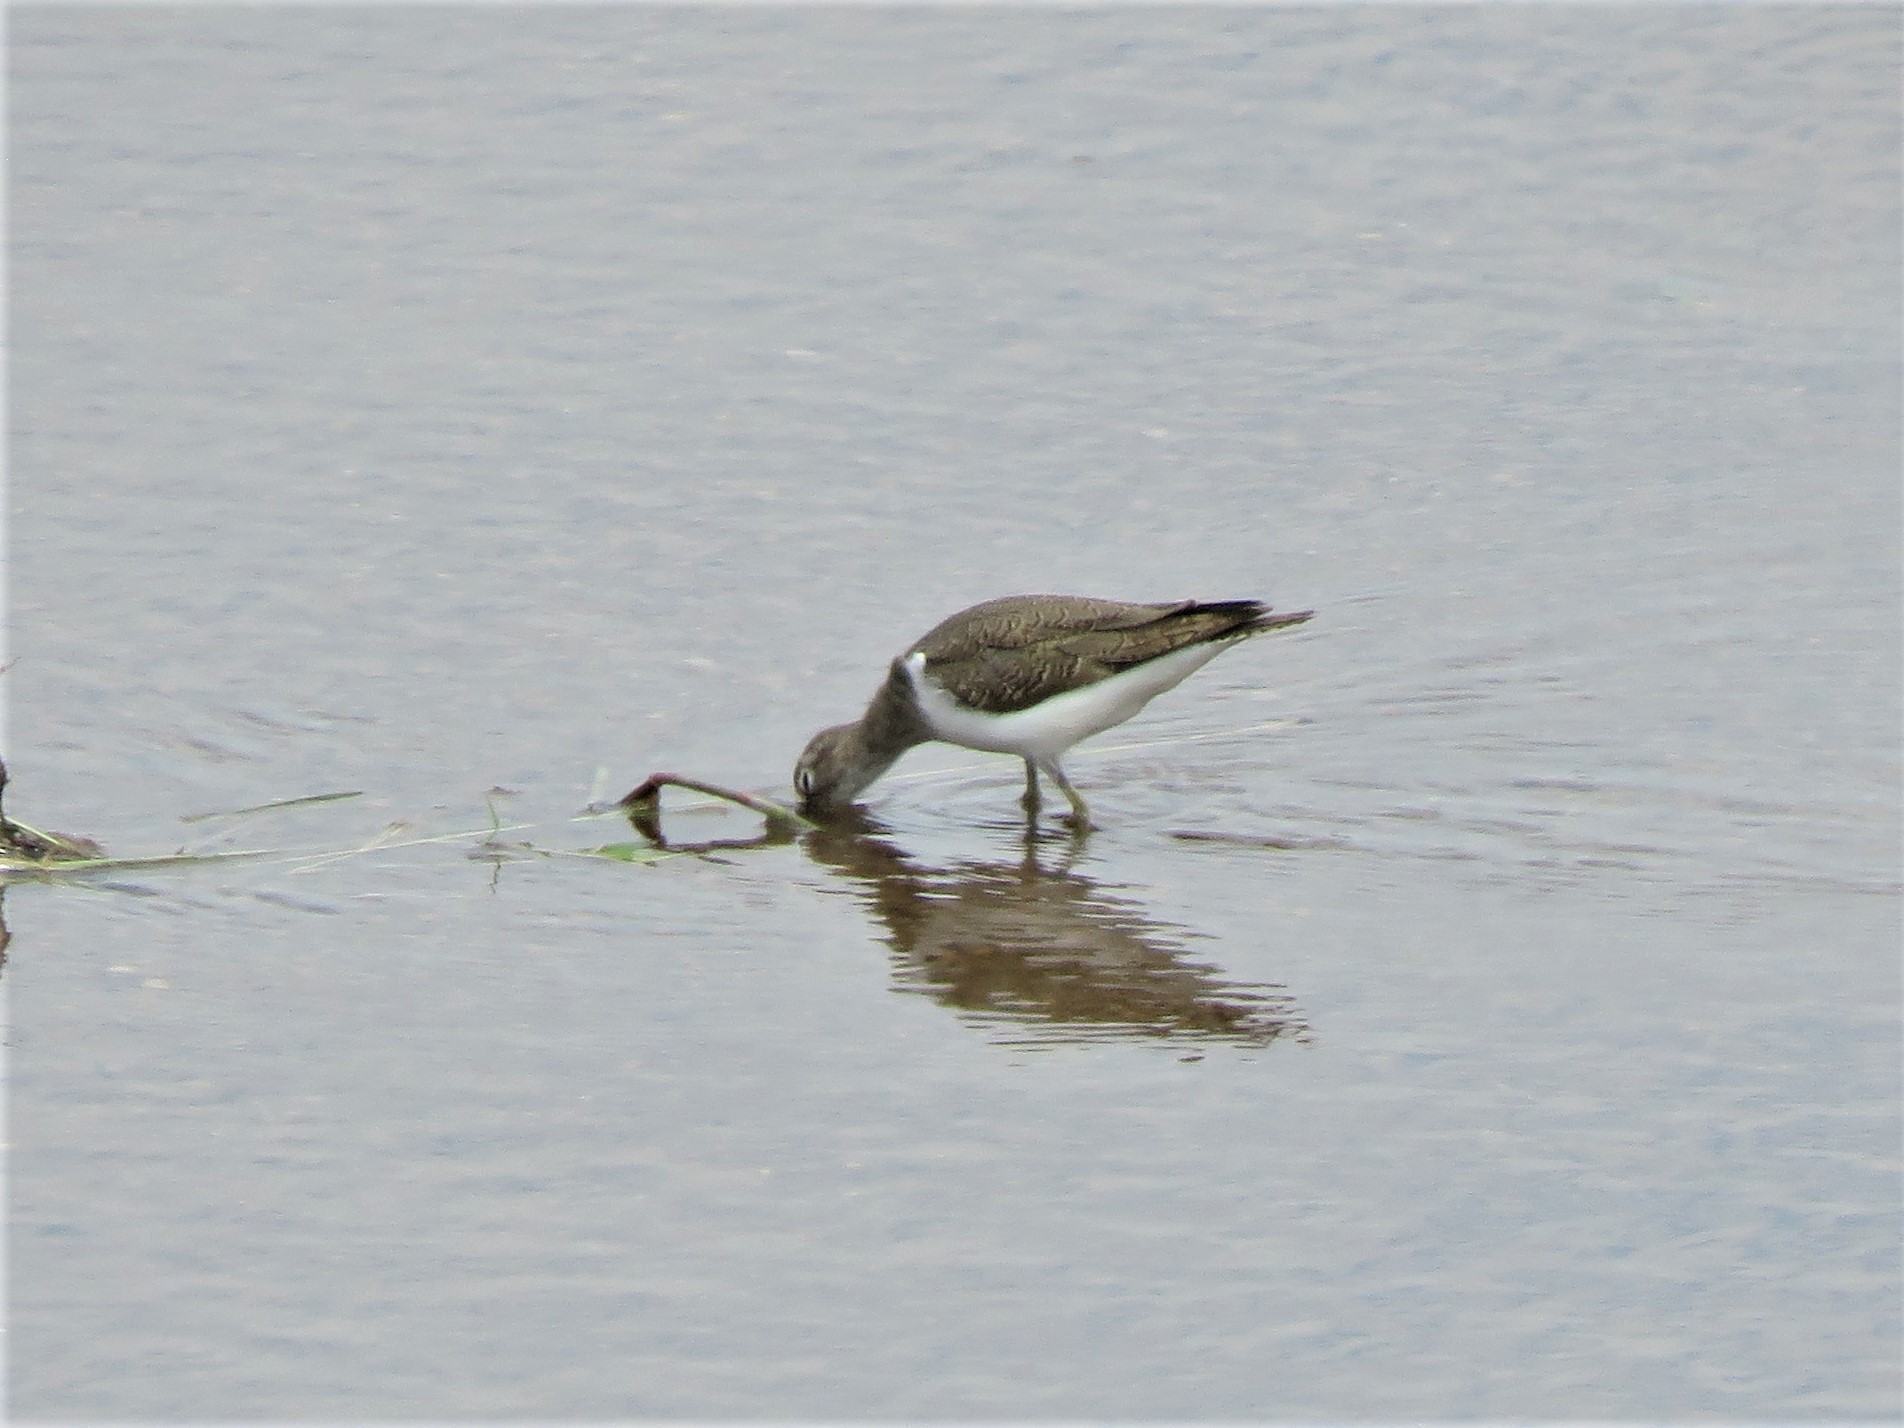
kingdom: Animalia
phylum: Chordata
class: Aves
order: Charadriiformes
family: Scolopacidae
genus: Actitis
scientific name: Actitis hypoleucos
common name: Common sandpiper
